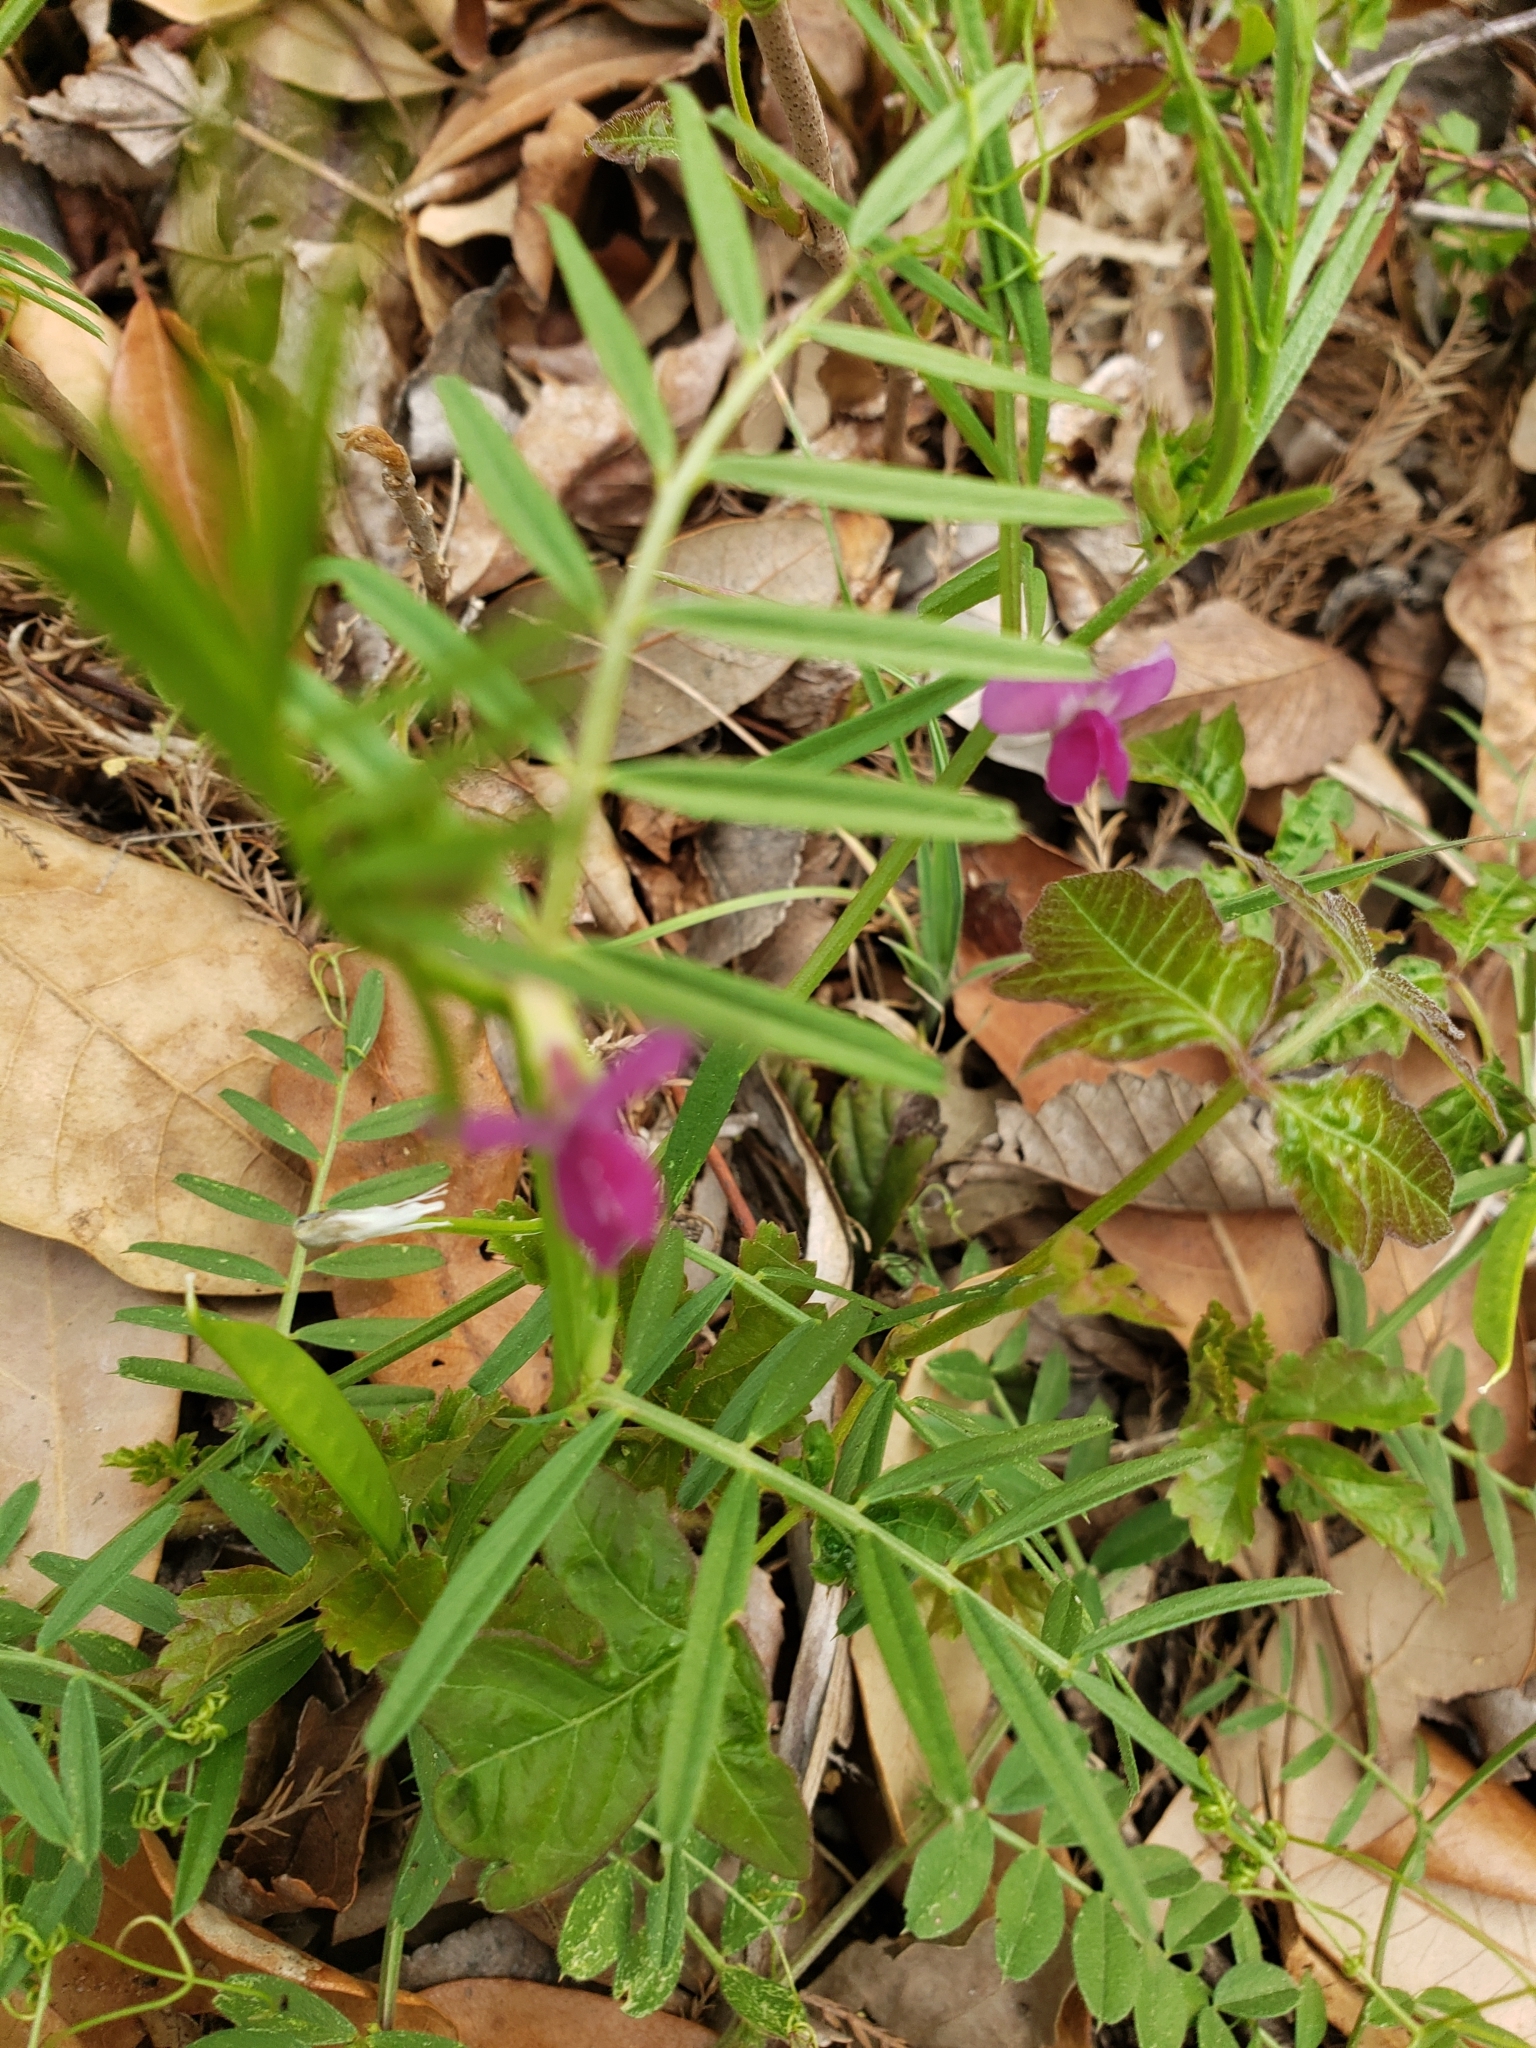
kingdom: Plantae
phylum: Tracheophyta
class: Magnoliopsida
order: Fabales
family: Fabaceae
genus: Vicia
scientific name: Vicia sativa
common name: Garden vetch
